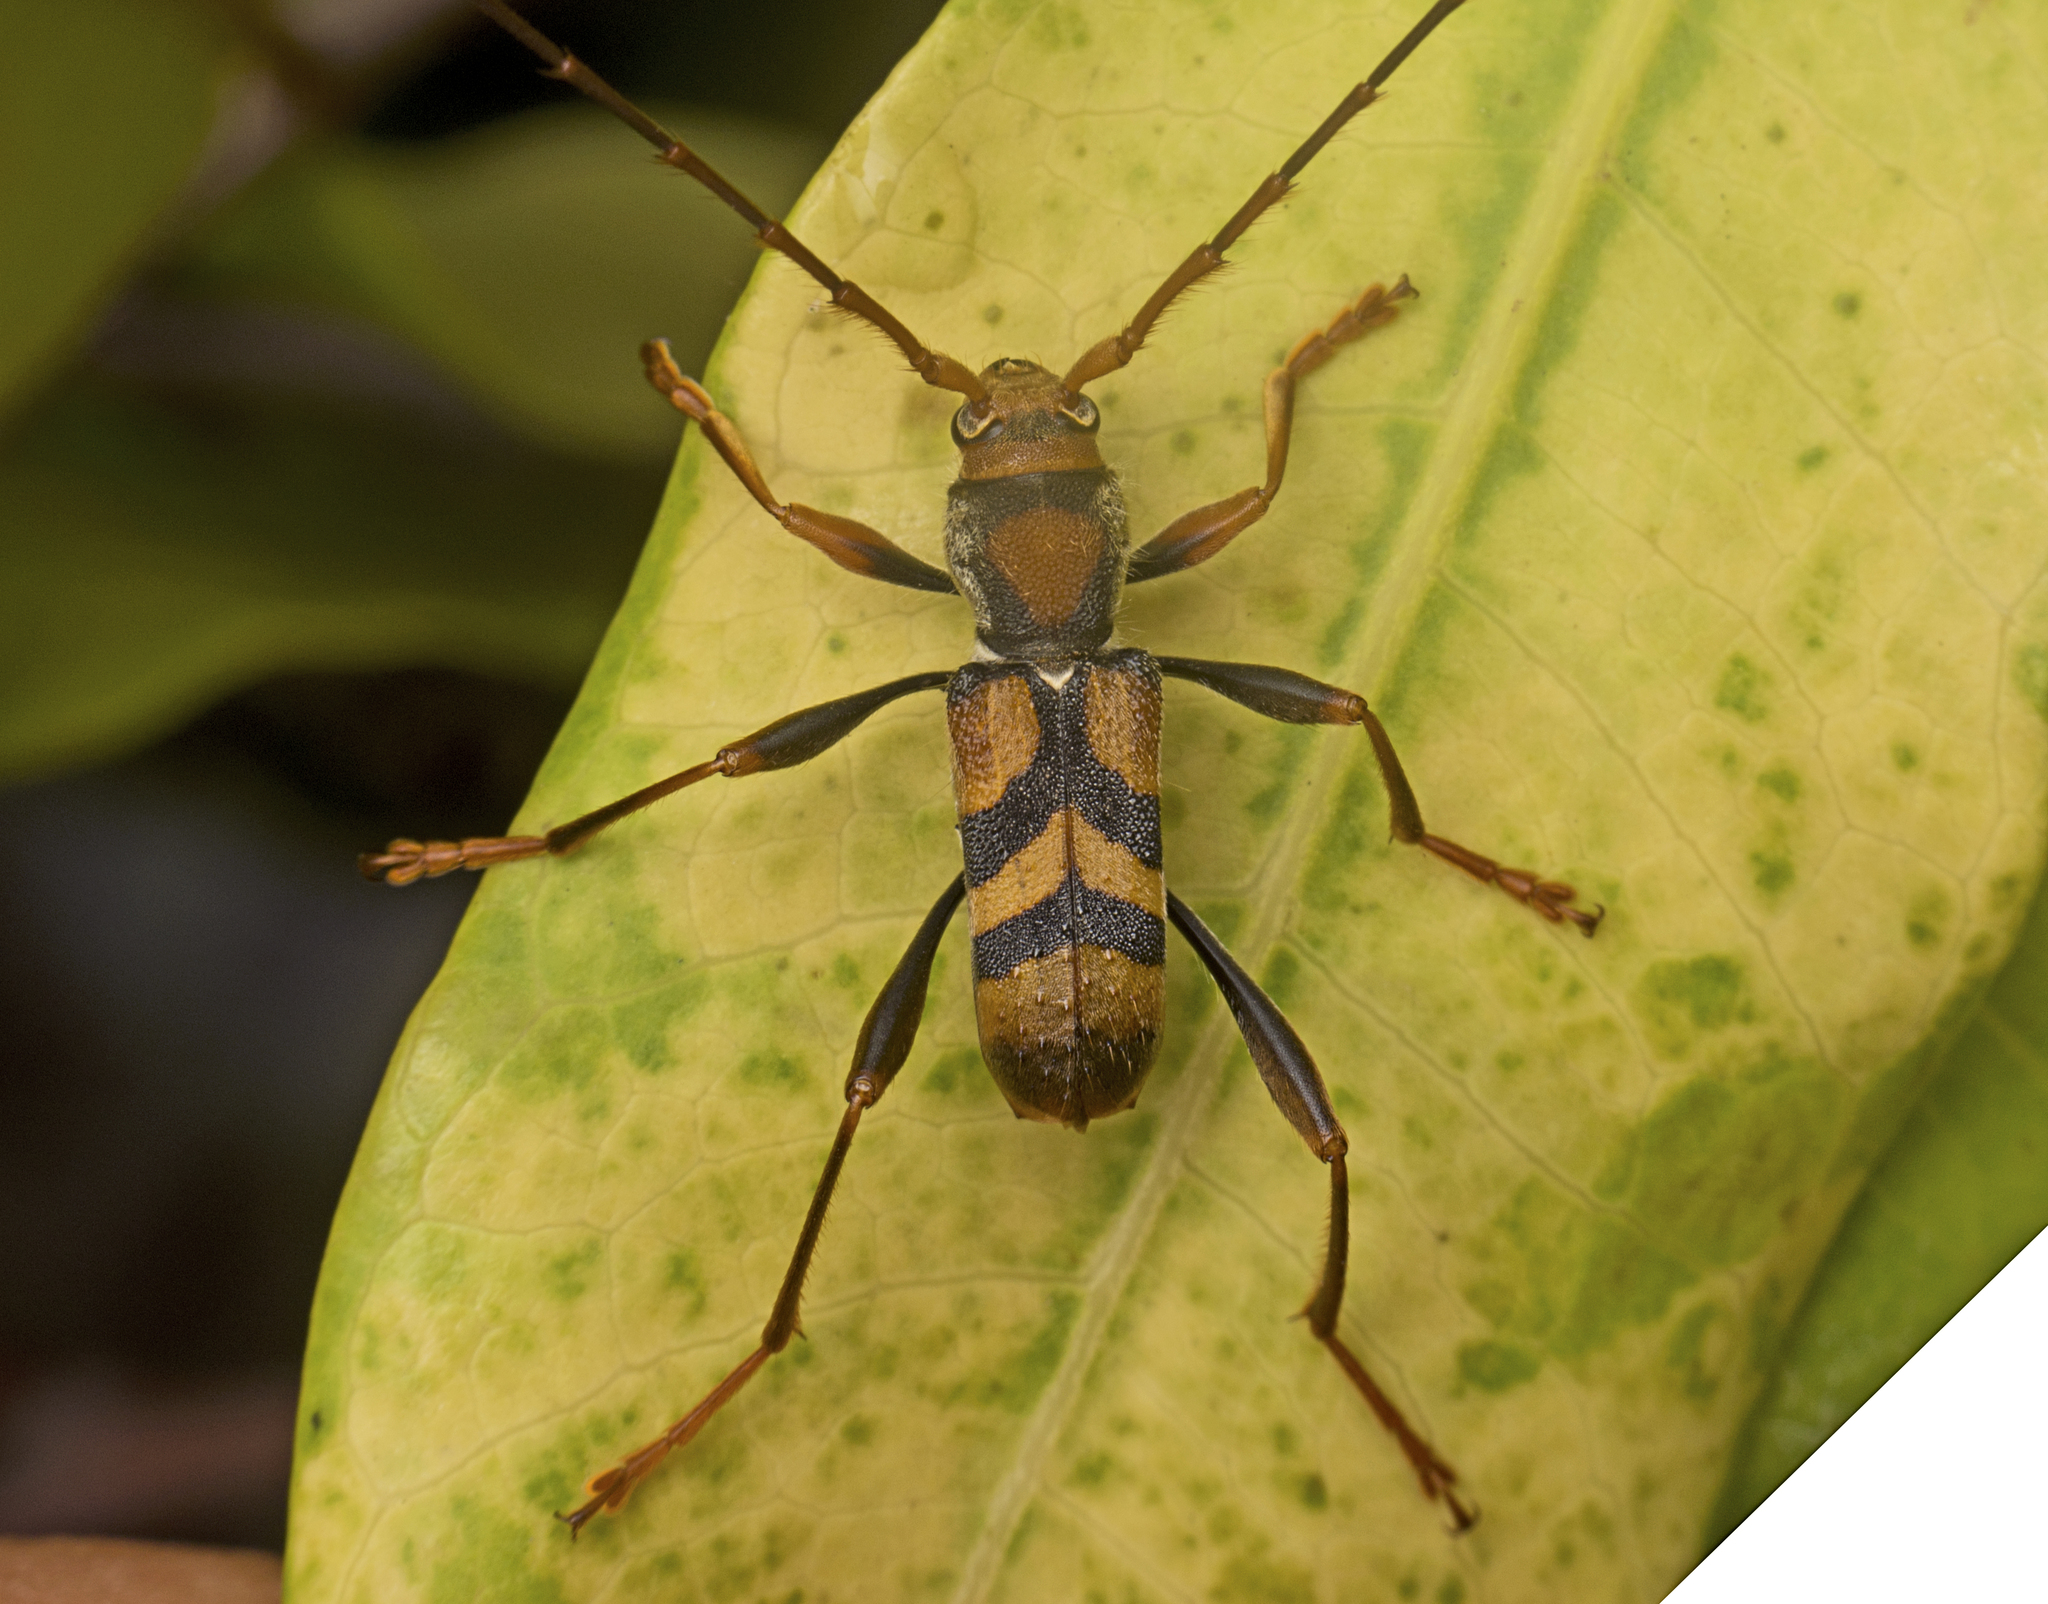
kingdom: Animalia
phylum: Arthropoda
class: Insecta
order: Coleoptera
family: Cerambycidae
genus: Aridaeus
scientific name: Aridaeus thoracicus
